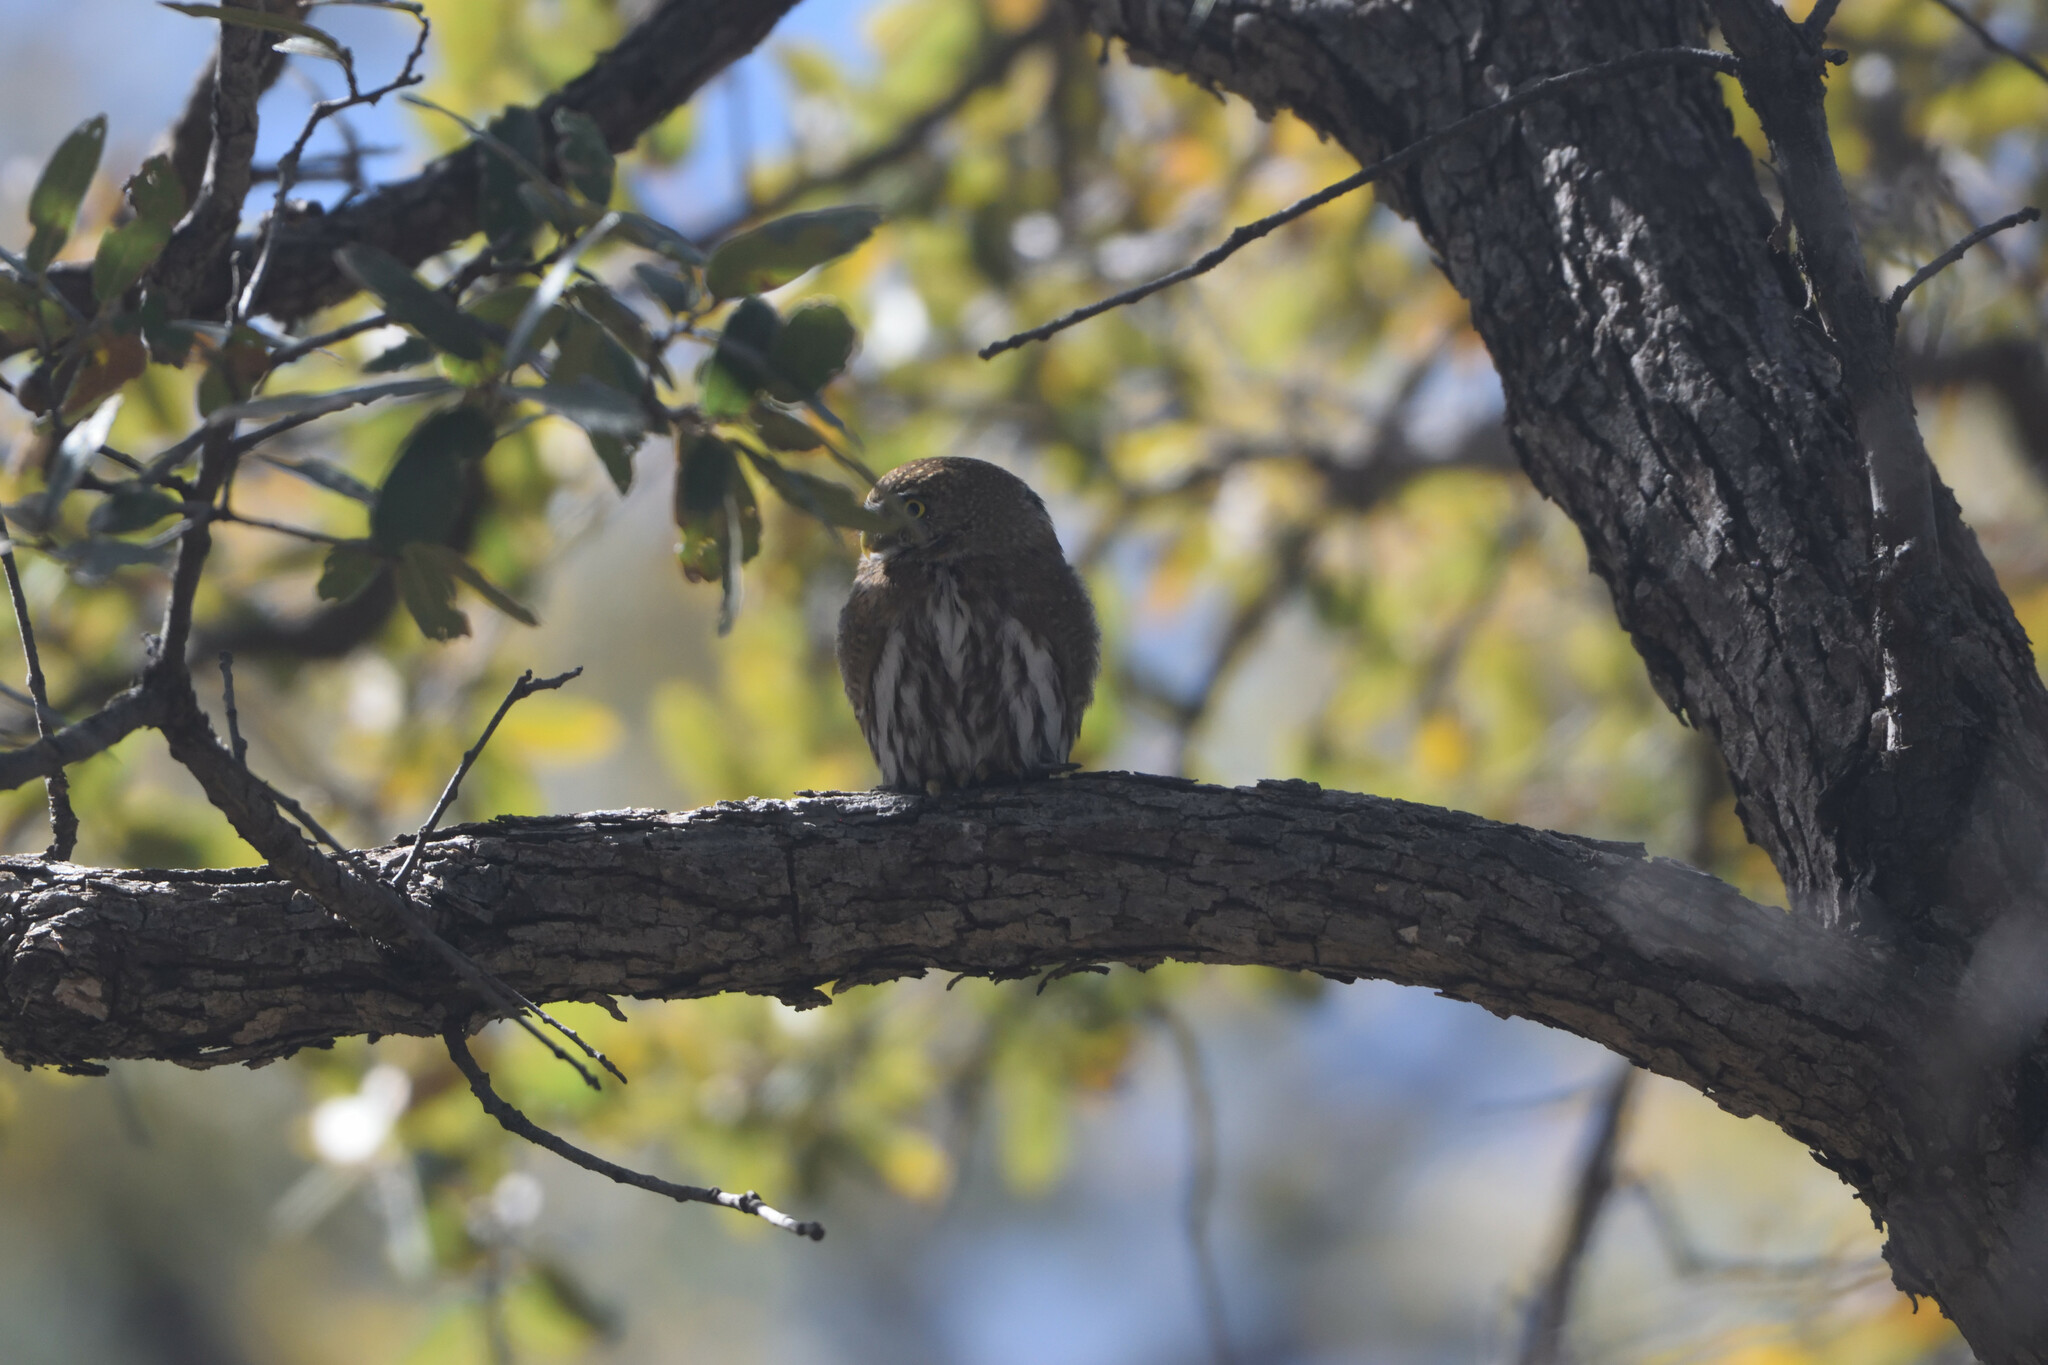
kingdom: Animalia
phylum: Chordata
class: Aves
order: Strigiformes
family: Strigidae
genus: Glaucidium
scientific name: Glaucidium gnoma
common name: Northern pygmy-owl
